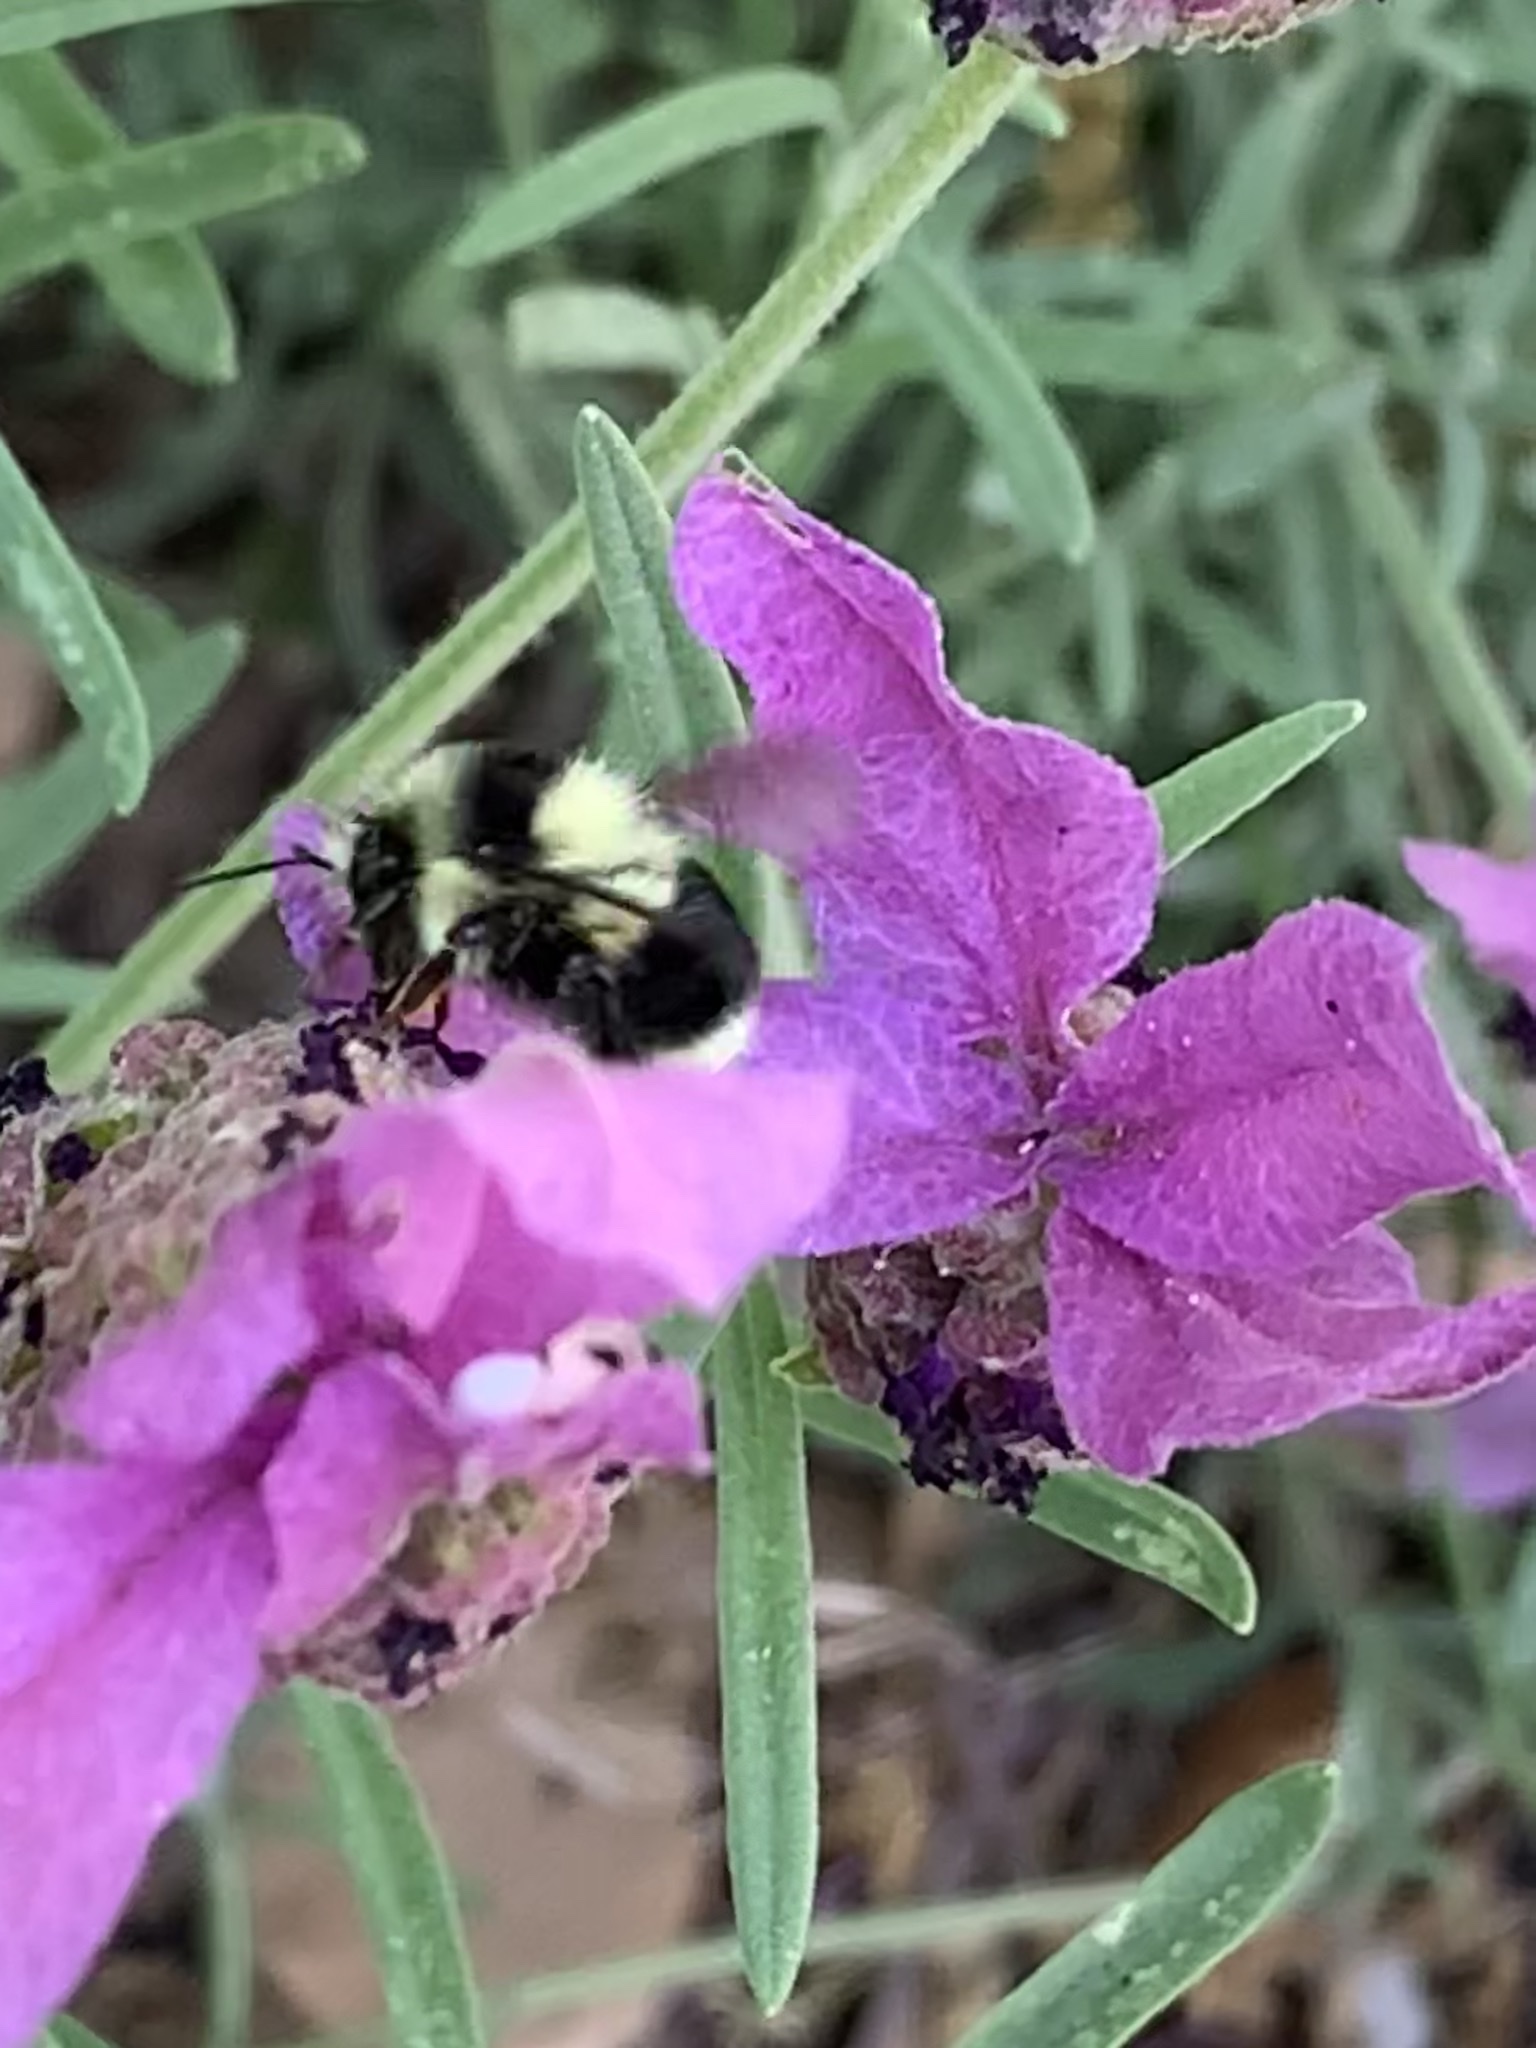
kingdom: Animalia
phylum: Arthropoda
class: Insecta
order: Hymenoptera
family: Apidae
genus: Bombus
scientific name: Bombus melanopygus
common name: Black tail bumble bee
